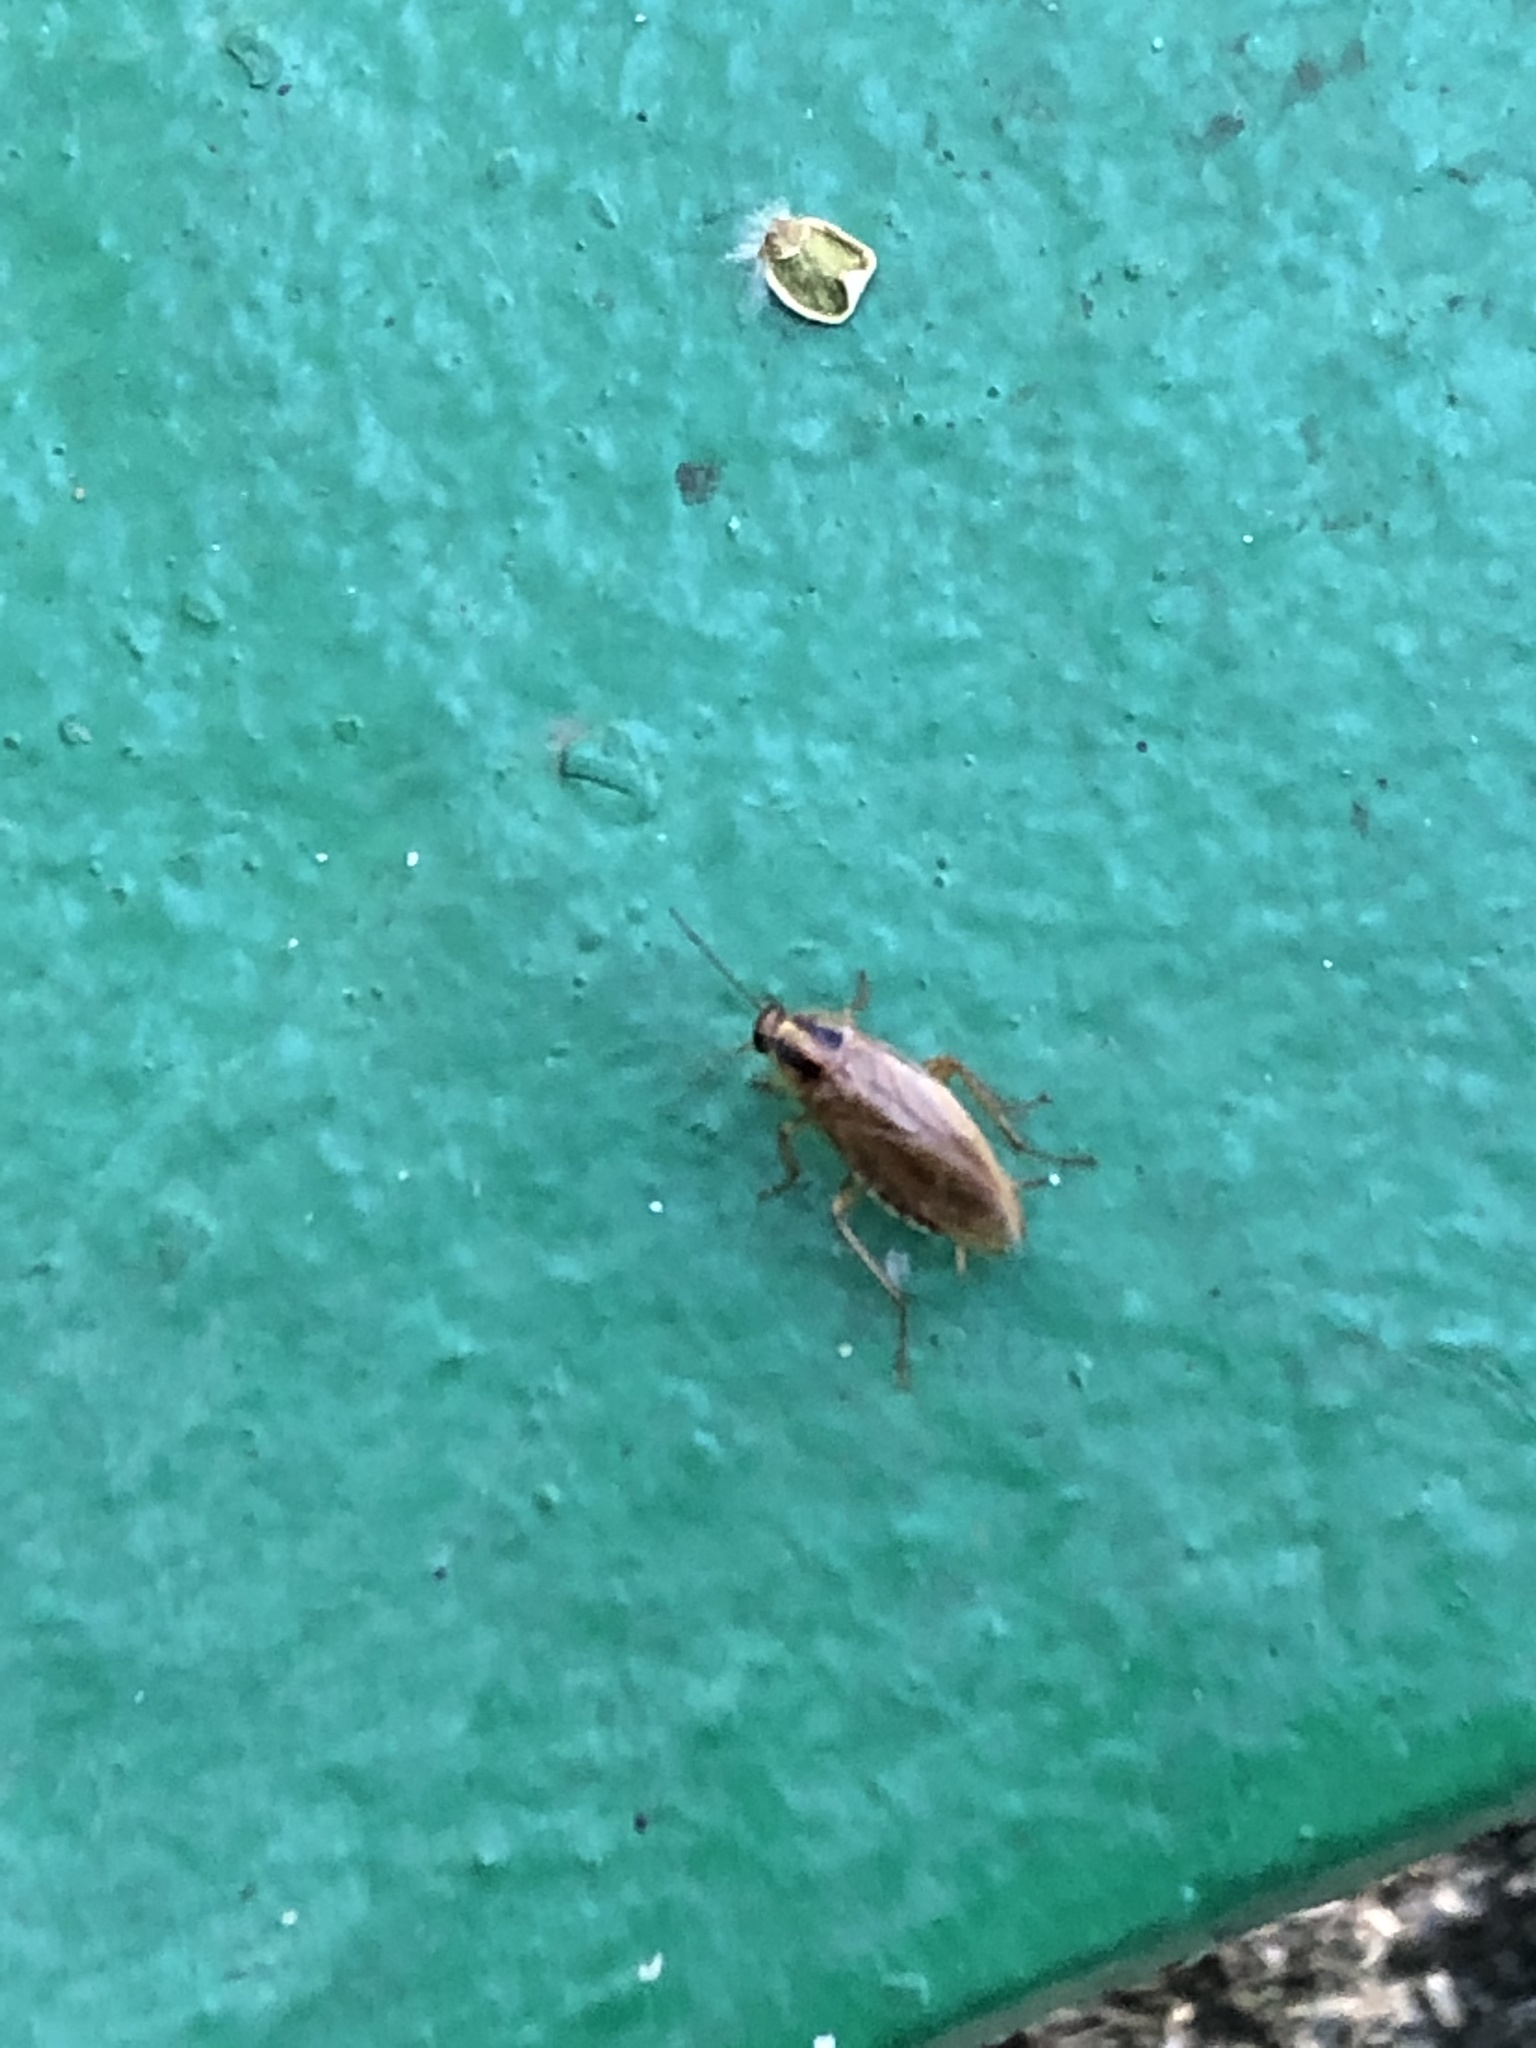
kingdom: Animalia
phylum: Arthropoda
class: Insecta
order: Blattodea
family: Ectobiidae
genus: Blattella
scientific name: Blattella germanica
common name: German cockroach
